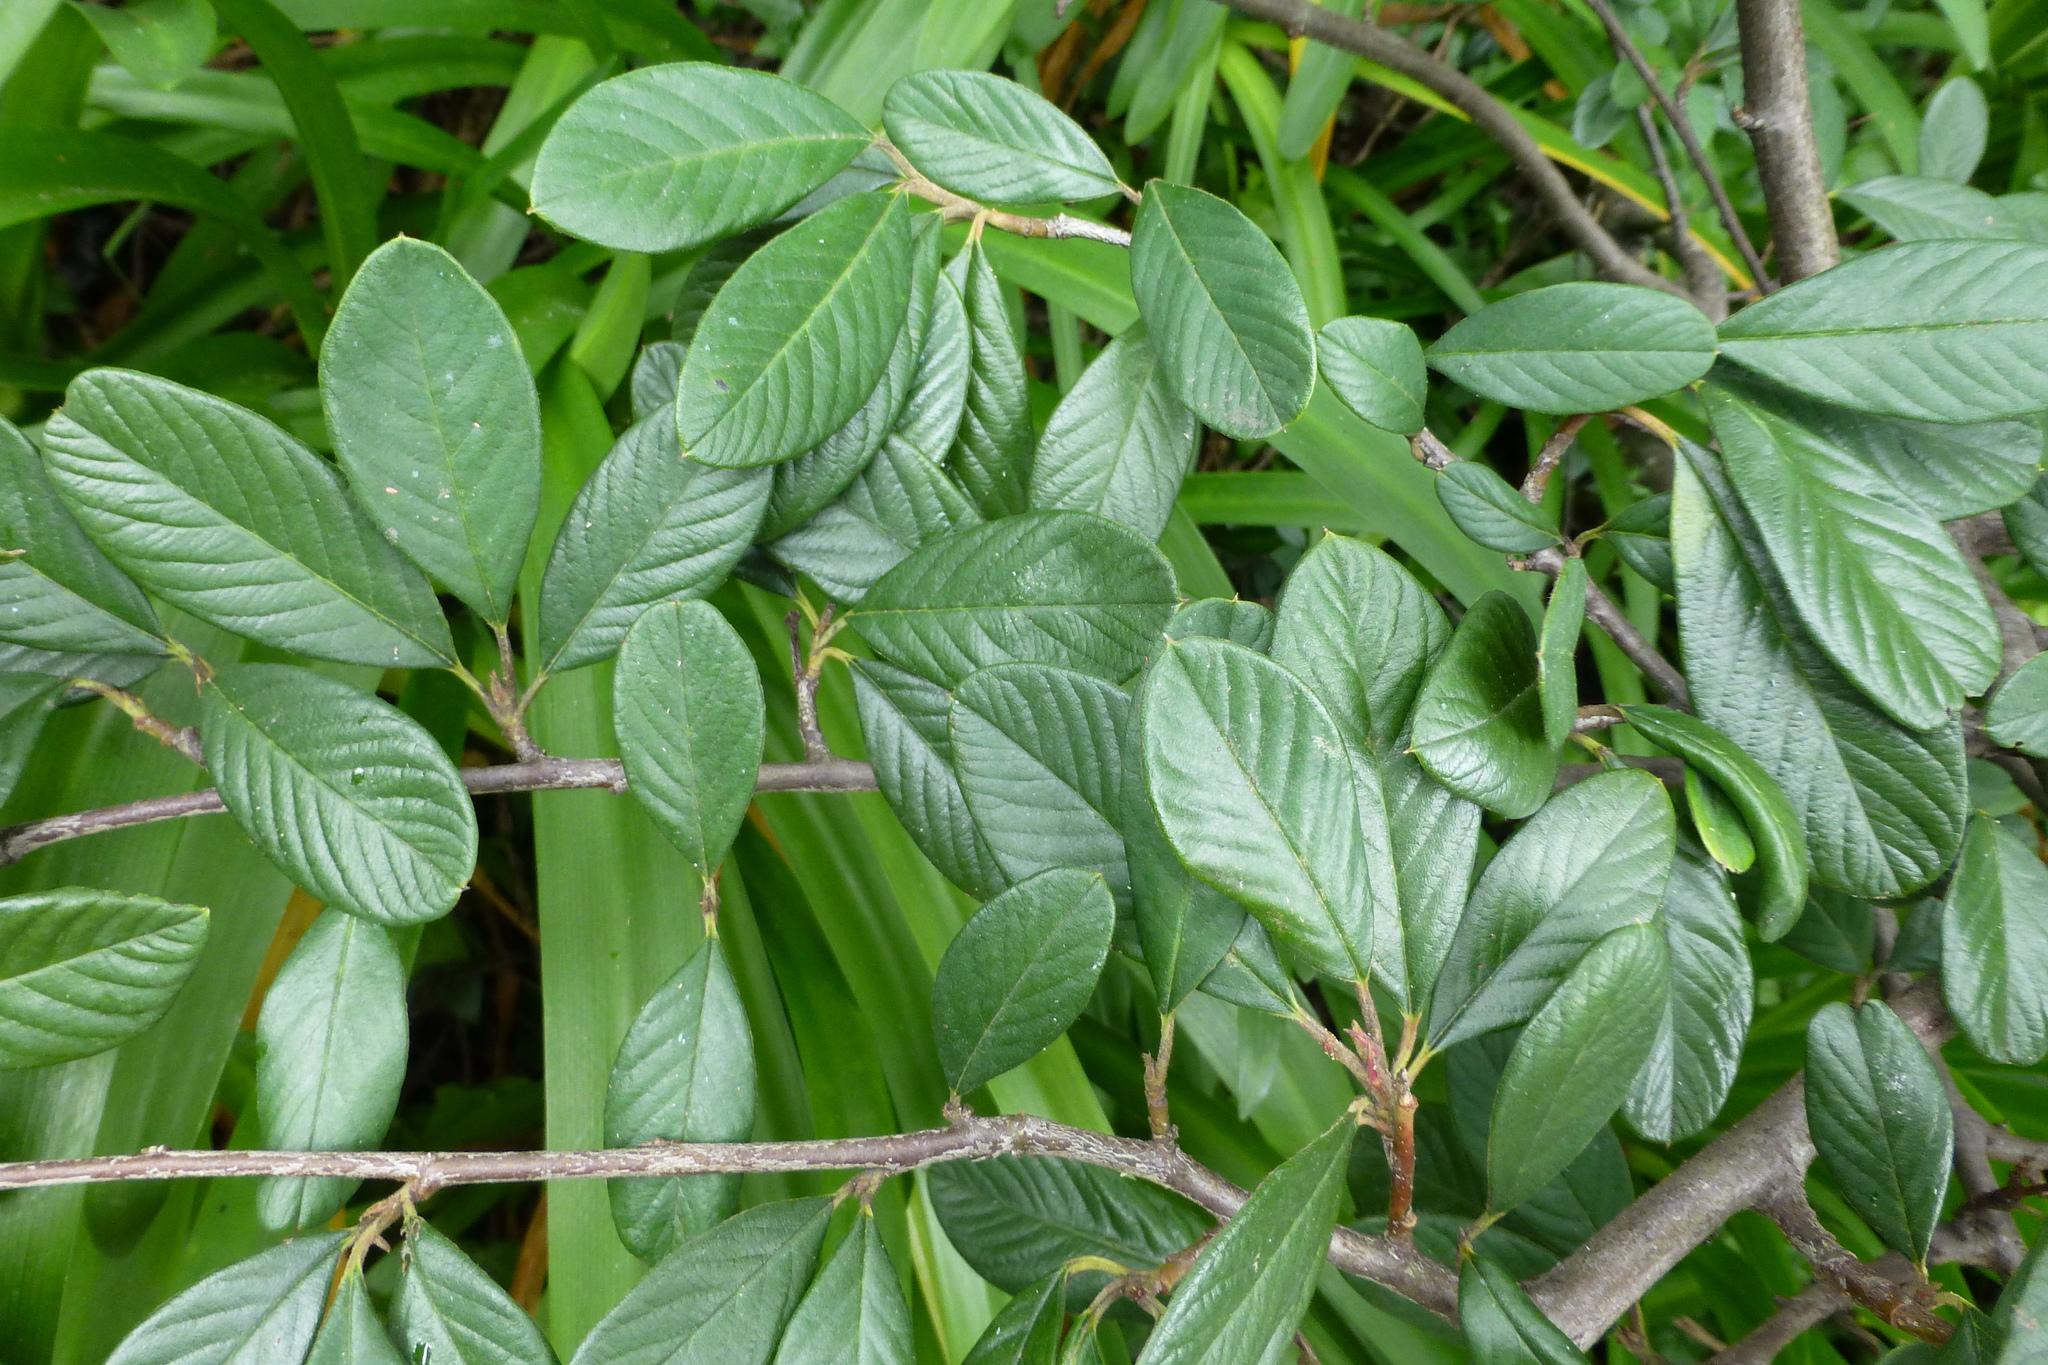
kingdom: Plantae
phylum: Tracheophyta
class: Magnoliopsida
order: Rosales
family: Rosaceae
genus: Cotoneaster
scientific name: Cotoneaster coriaceus
